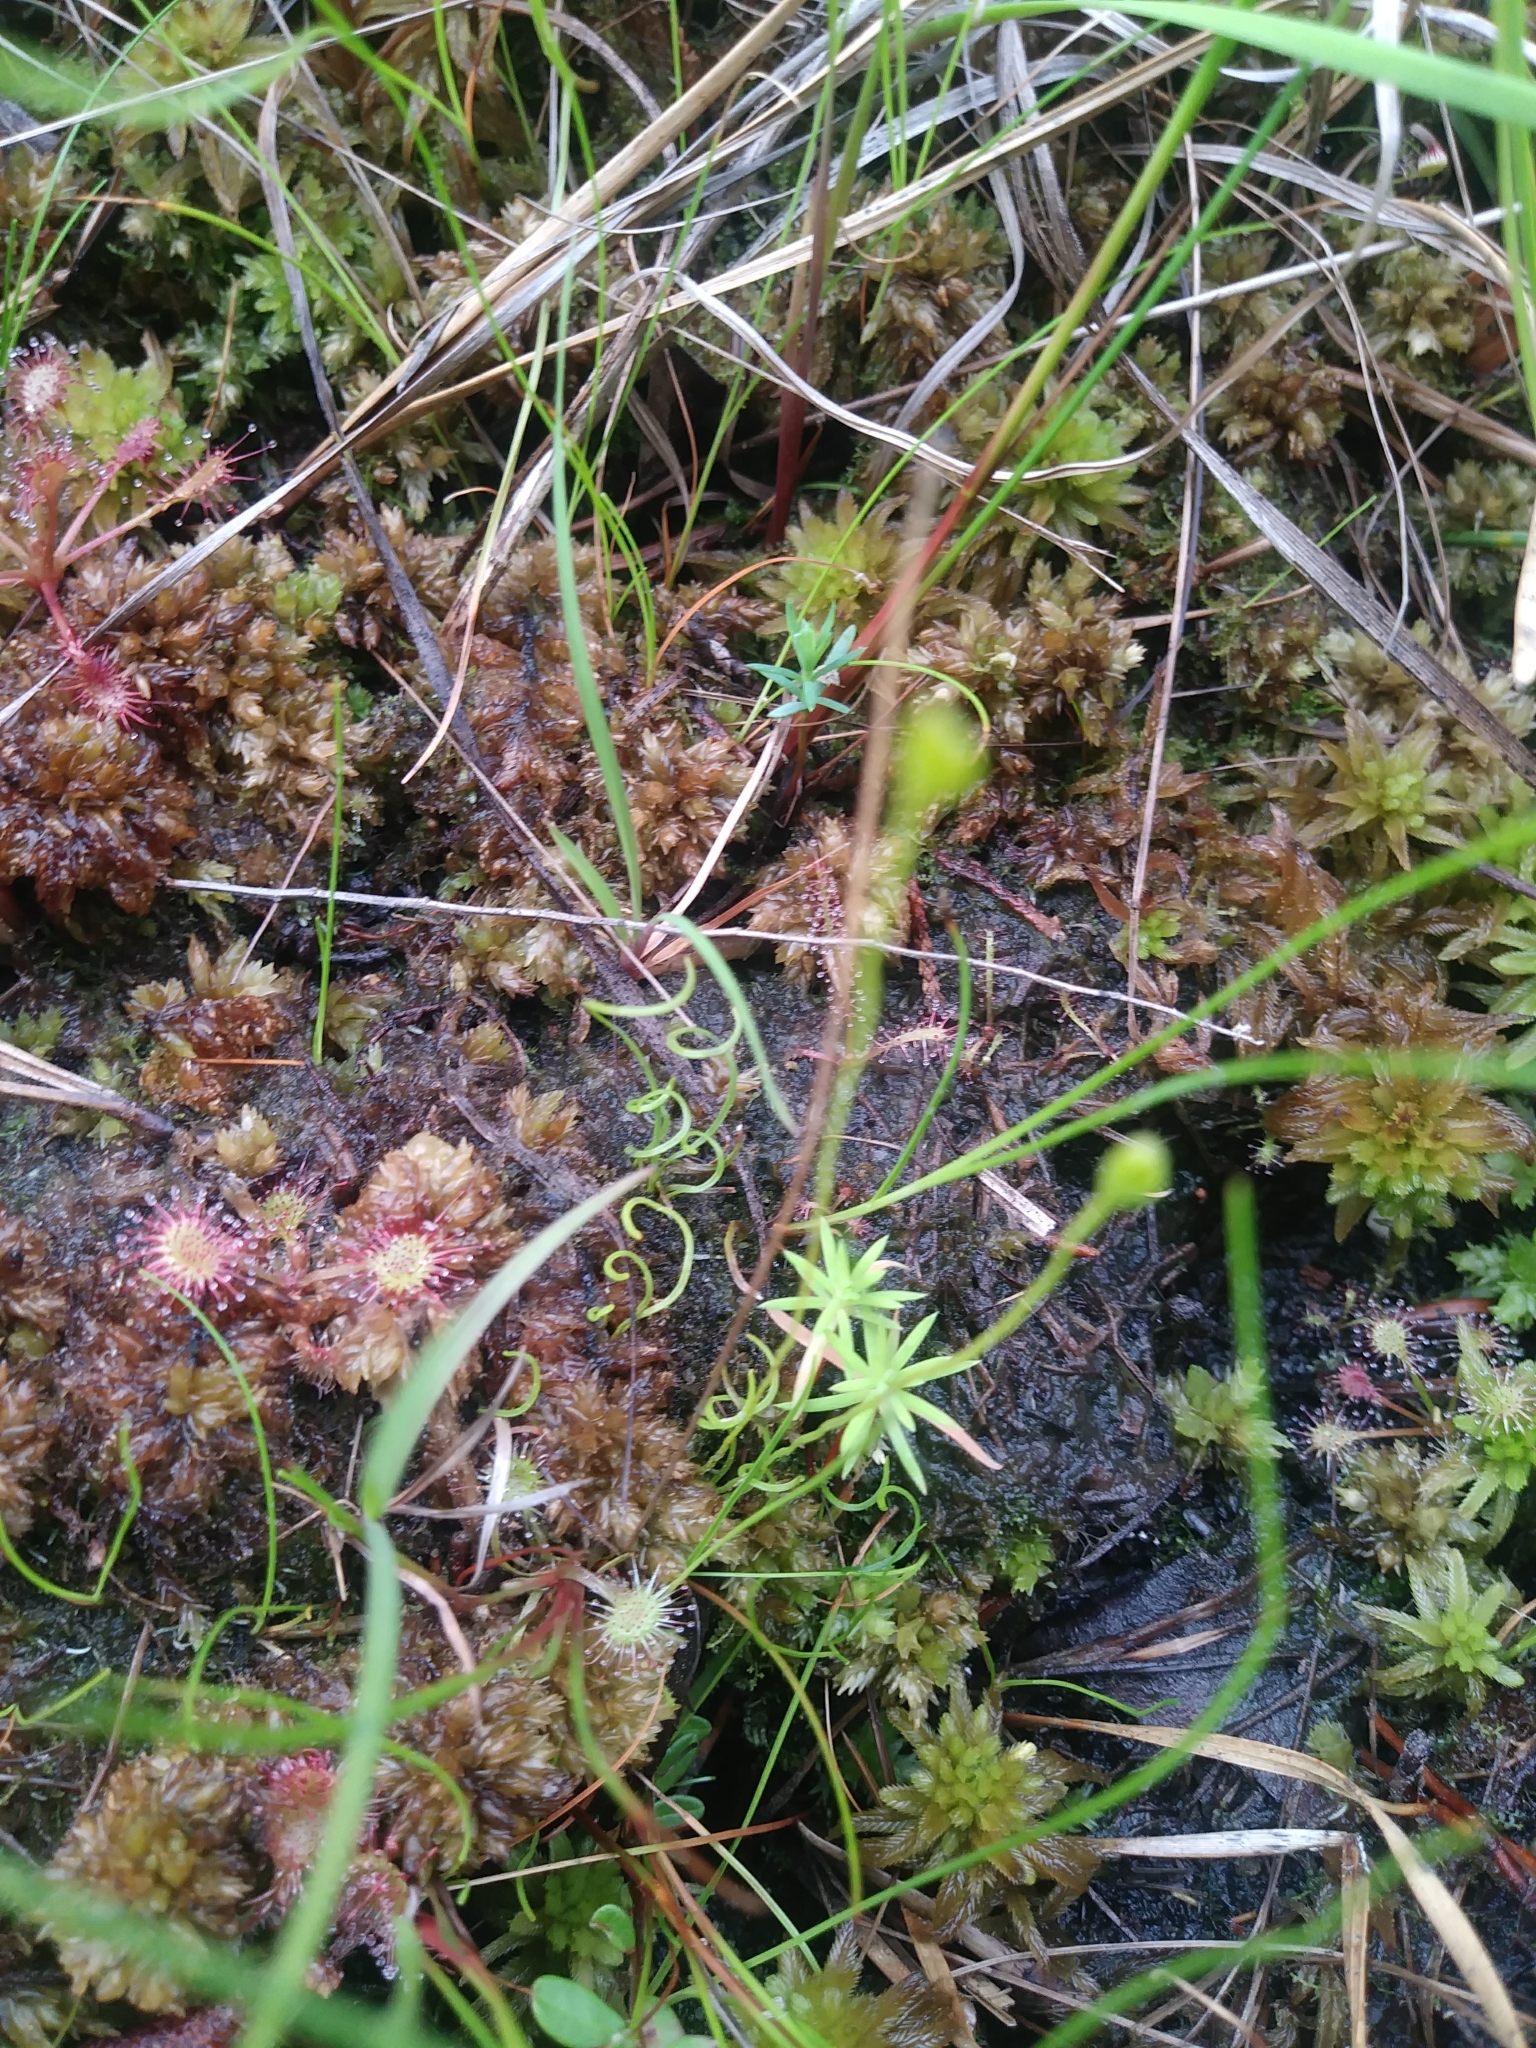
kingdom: Plantae
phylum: Tracheophyta
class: Polypodiopsida
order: Schizaeales
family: Schizaeaceae
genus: Schizaea
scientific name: Schizaea pusilla
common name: Curly-grass fern
